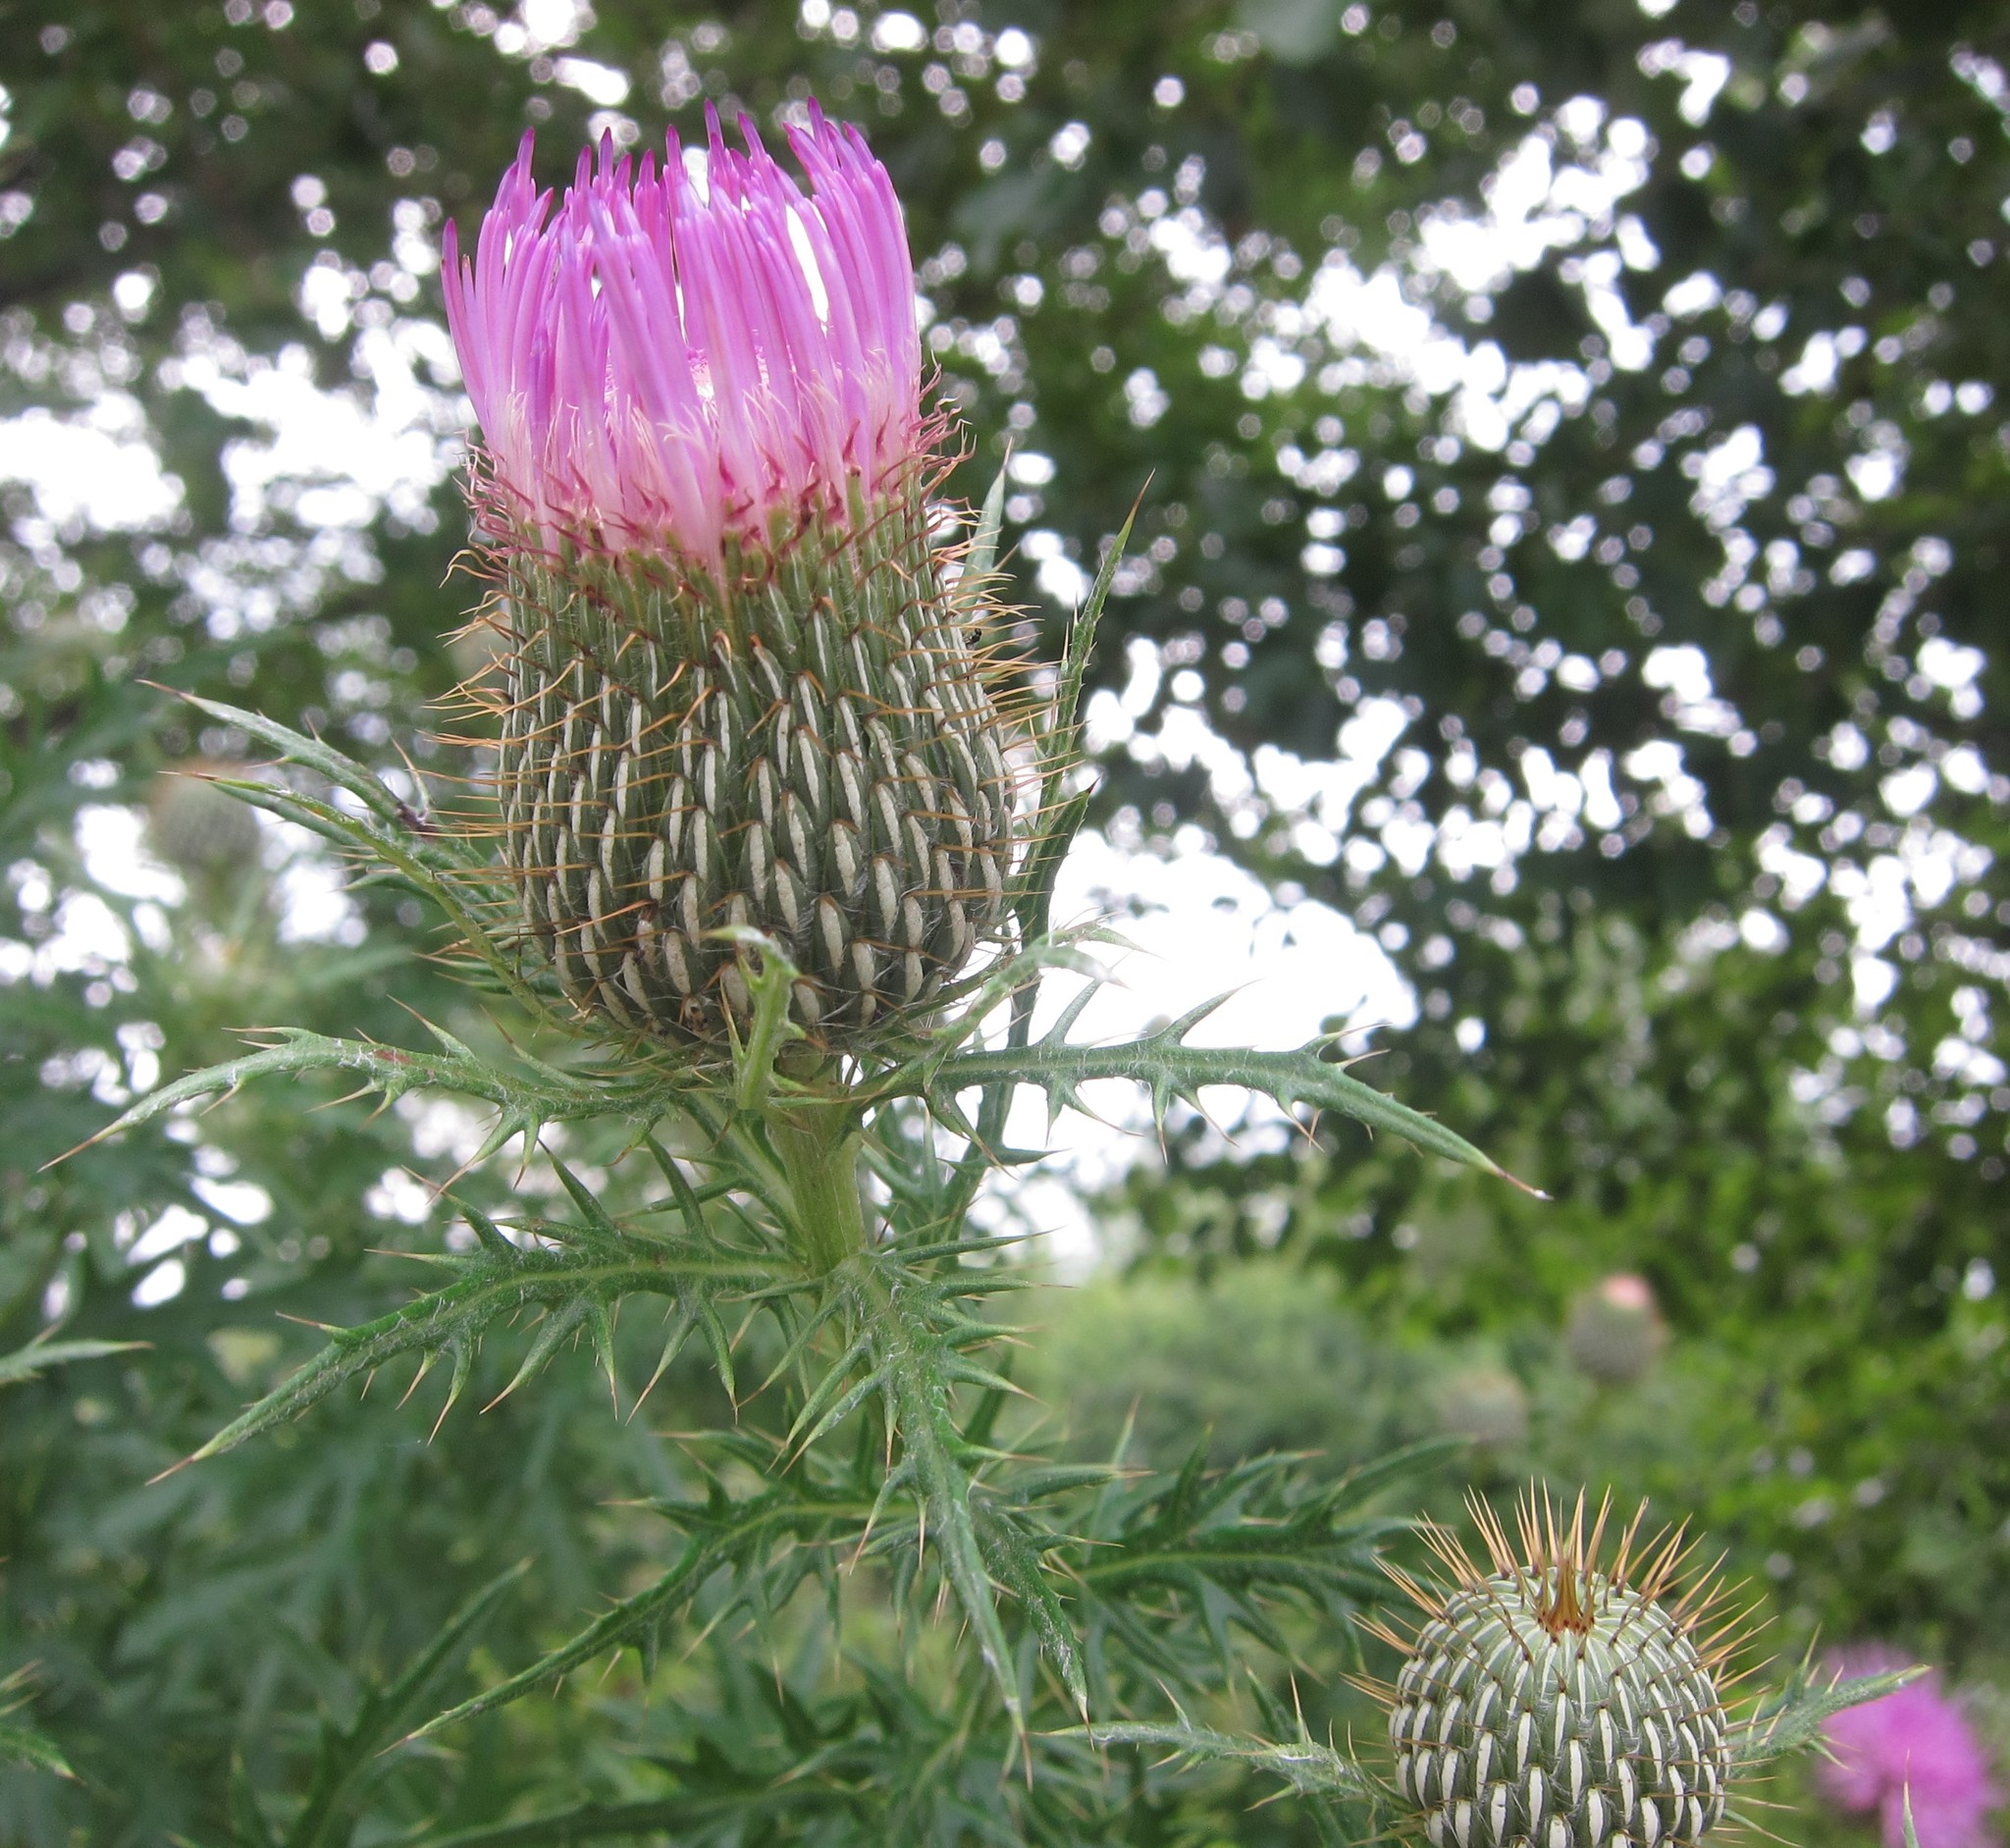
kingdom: Plantae
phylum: Tracheophyta
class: Magnoliopsida
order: Asterales
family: Asteraceae
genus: Cirsium
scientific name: Cirsium discolor
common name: Field thistle
